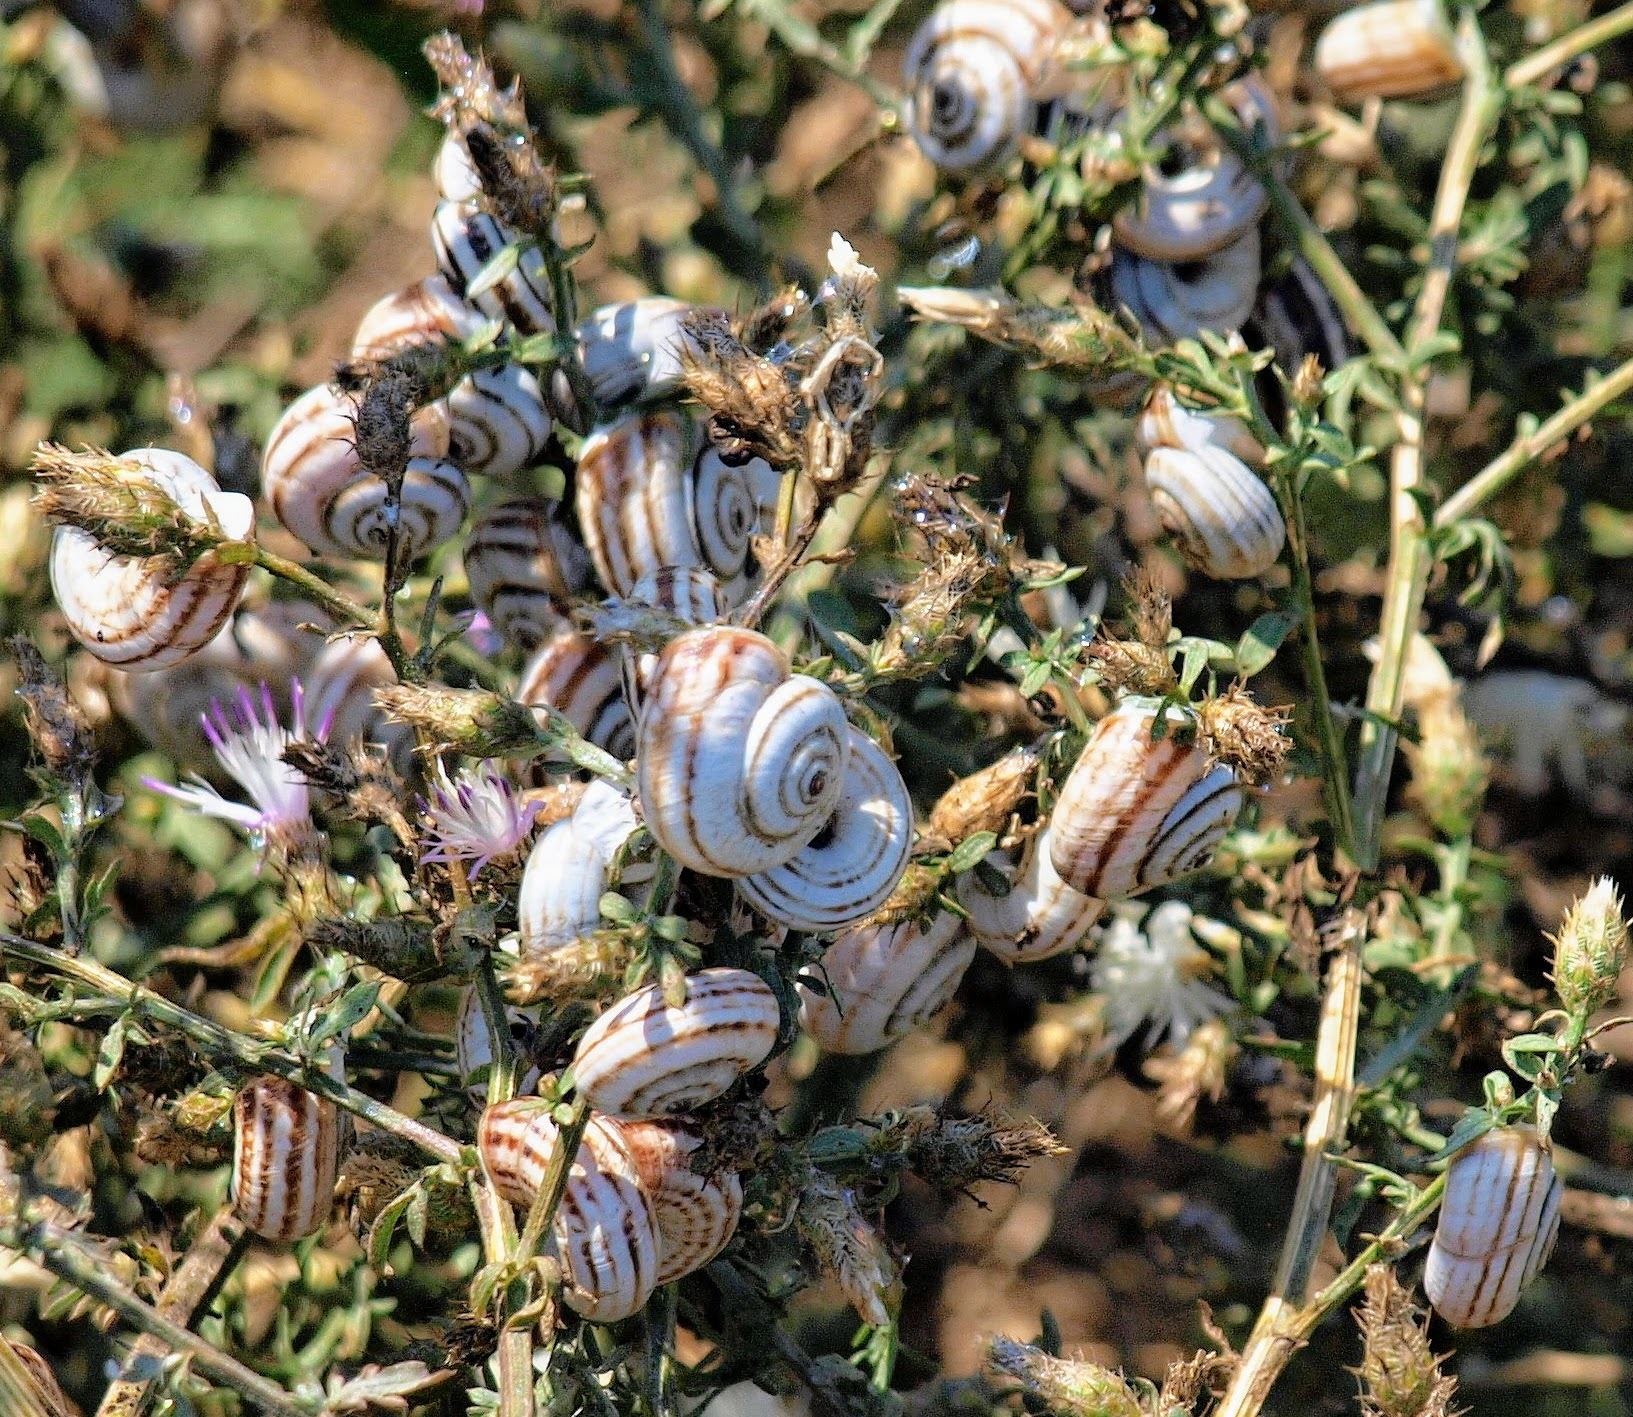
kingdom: Animalia
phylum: Mollusca
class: Gastropoda
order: Stylommatophora
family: Geomitridae
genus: Xeropicta
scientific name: Xeropicta derbentina
